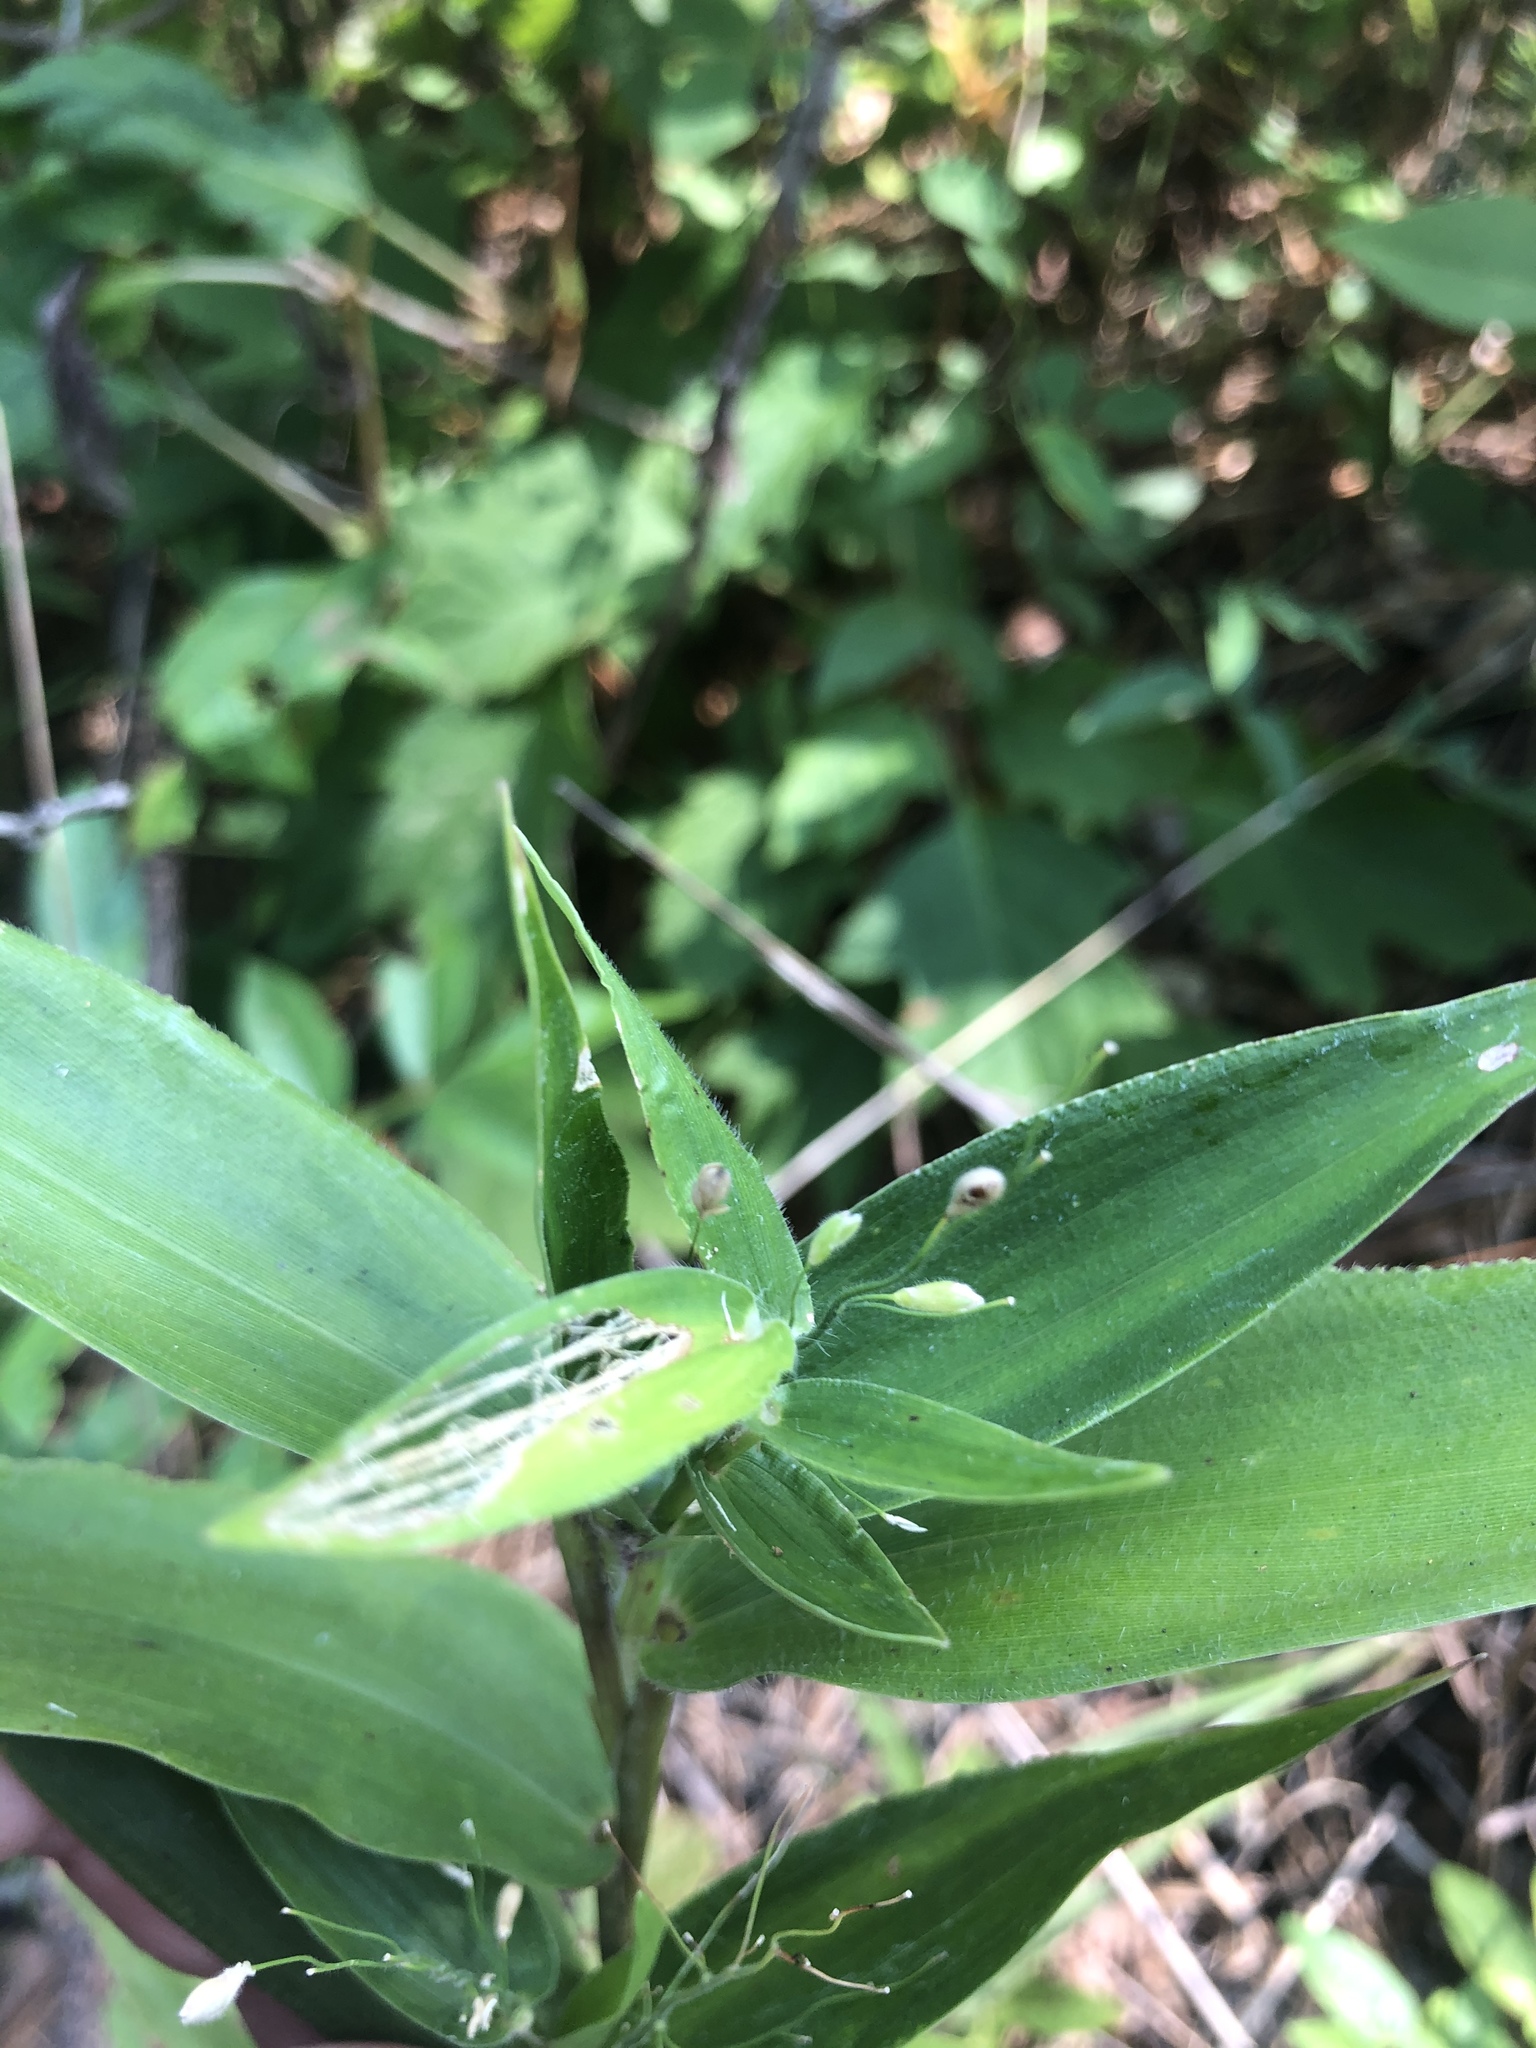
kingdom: Plantae
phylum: Tracheophyta
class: Liliopsida
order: Poales
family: Poaceae
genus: Dichanthelium
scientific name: Dichanthelium boscii
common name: Bosc's panic grass
